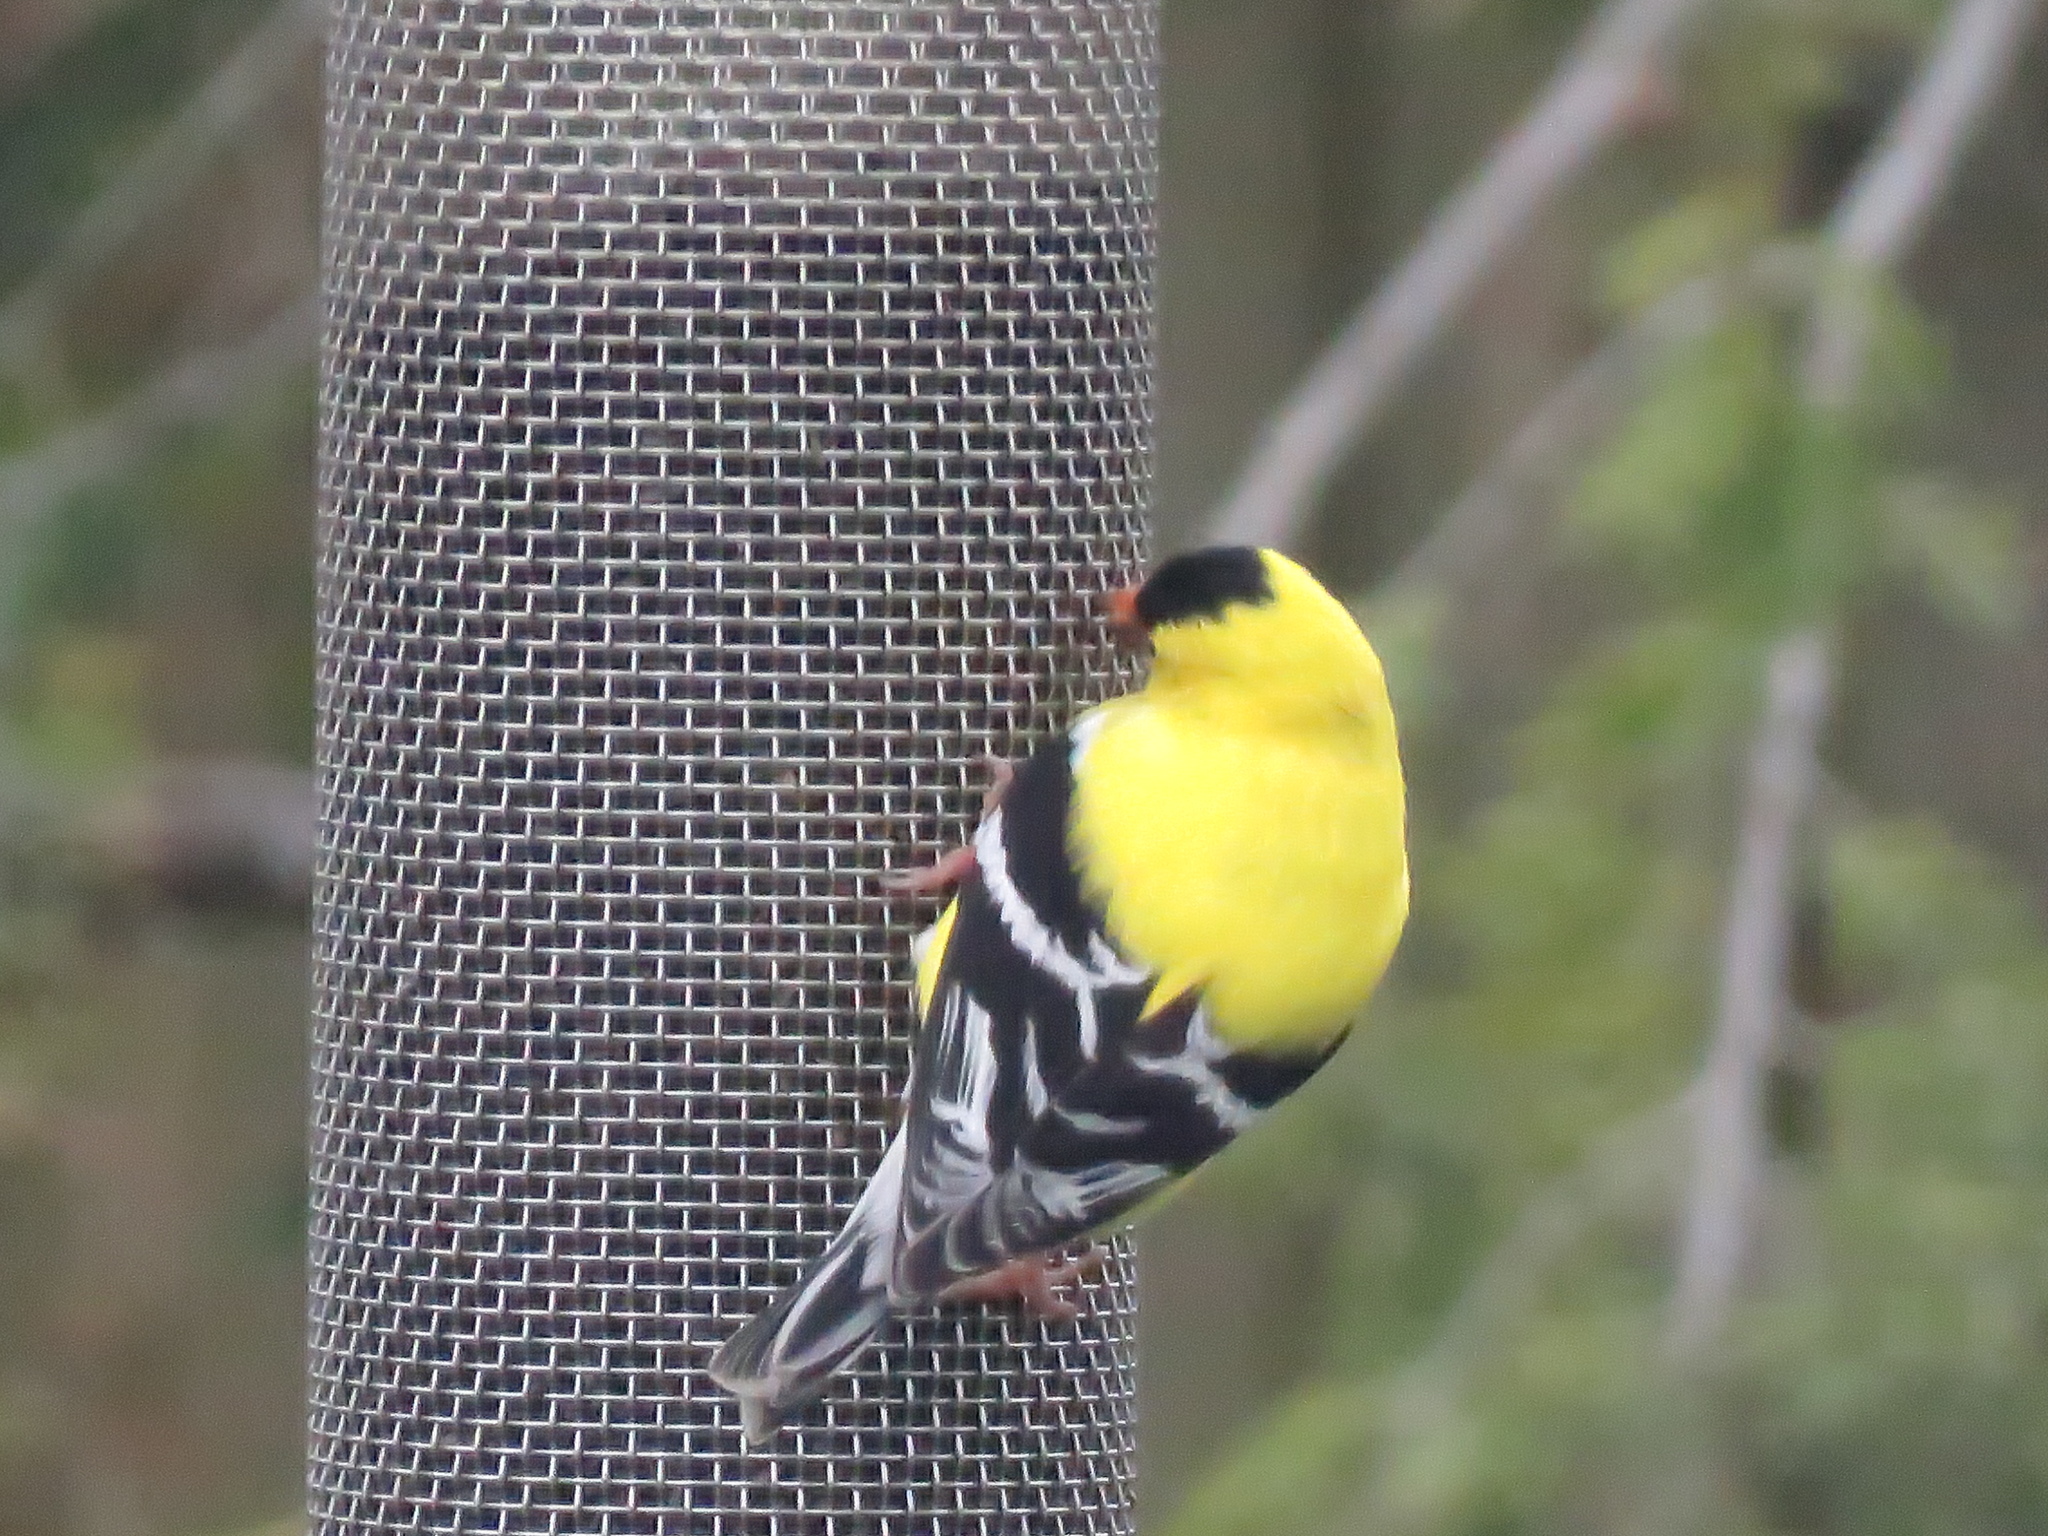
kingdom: Animalia
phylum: Chordata
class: Aves
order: Passeriformes
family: Fringillidae
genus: Spinus
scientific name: Spinus tristis
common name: American goldfinch
